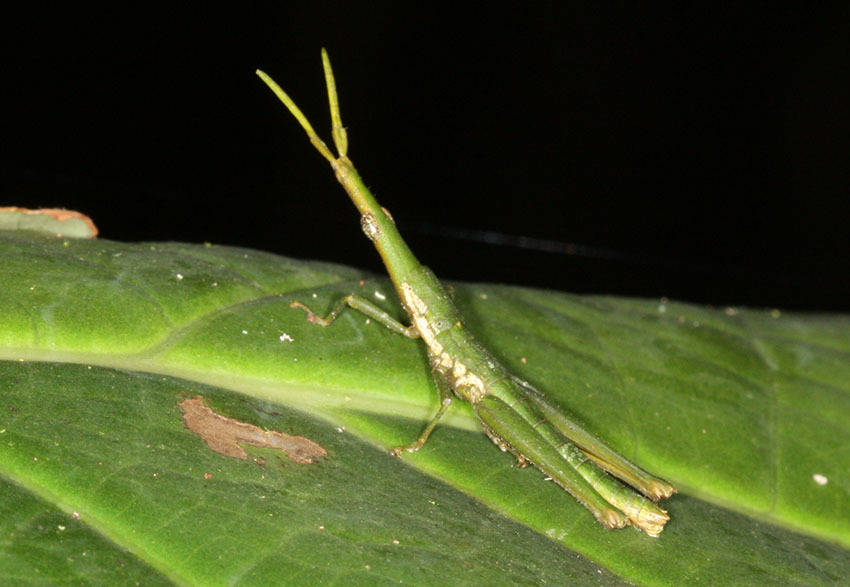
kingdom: Animalia
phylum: Arthropoda
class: Insecta
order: Orthoptera
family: Pyrgomorphidae
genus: Omura
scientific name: Omura congrua
